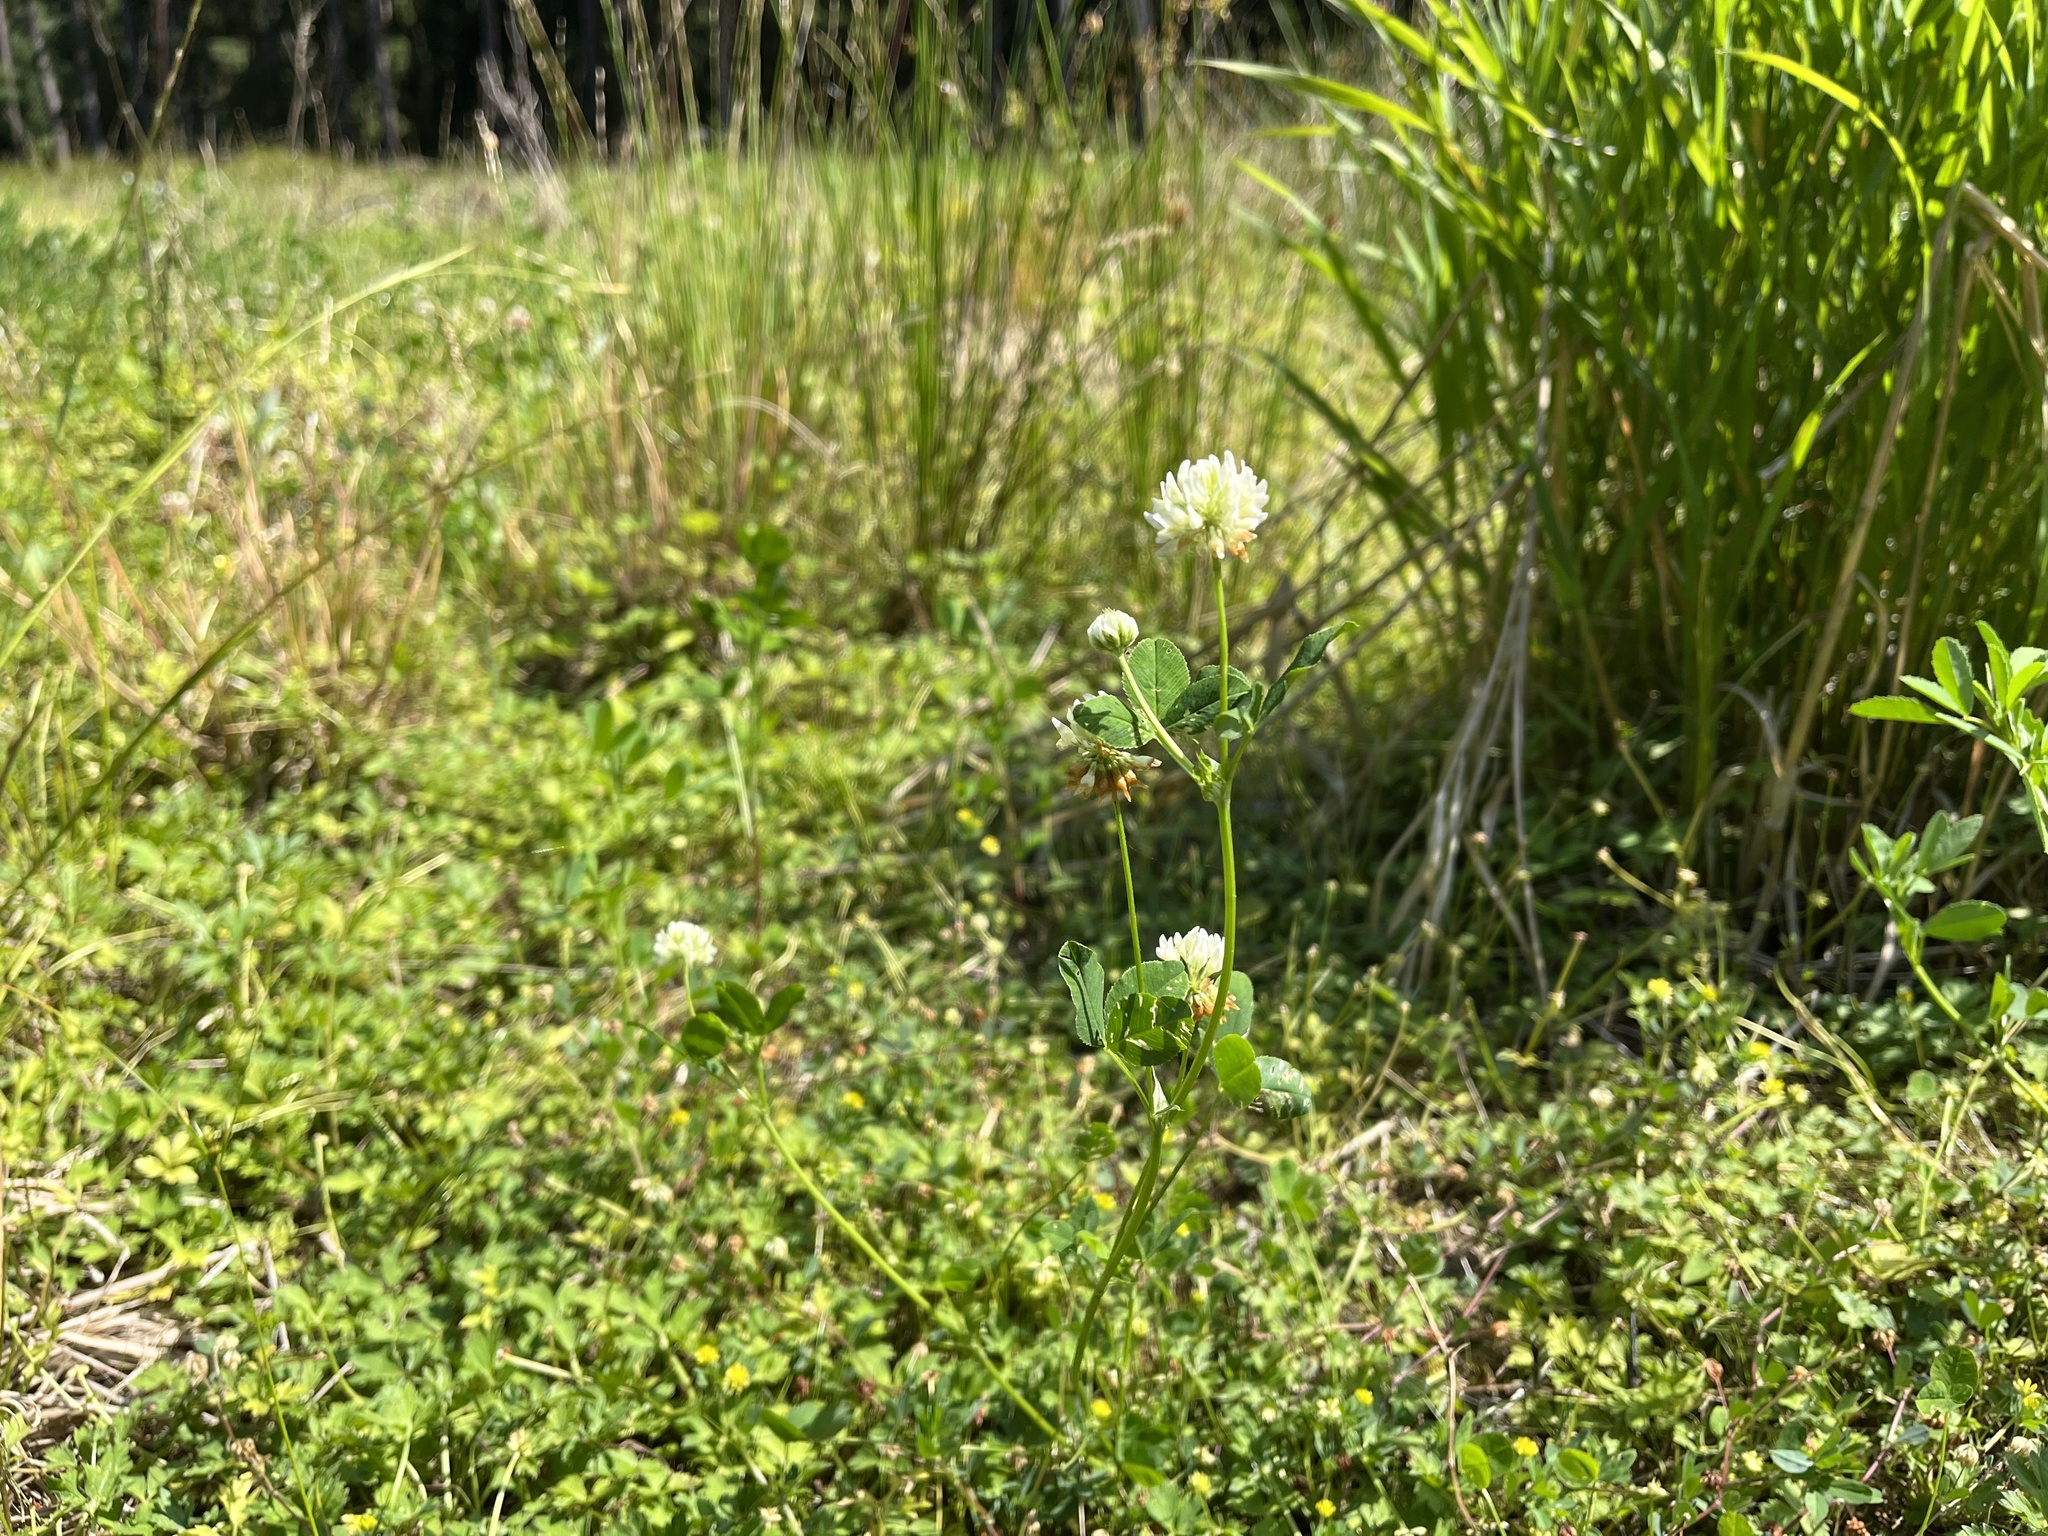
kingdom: Plantae
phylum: Tracheophyta
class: Magnoliopsida
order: Fabales
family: Fabaceae
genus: Trifolium
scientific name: Trifolium hybridum
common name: Alsike clover
